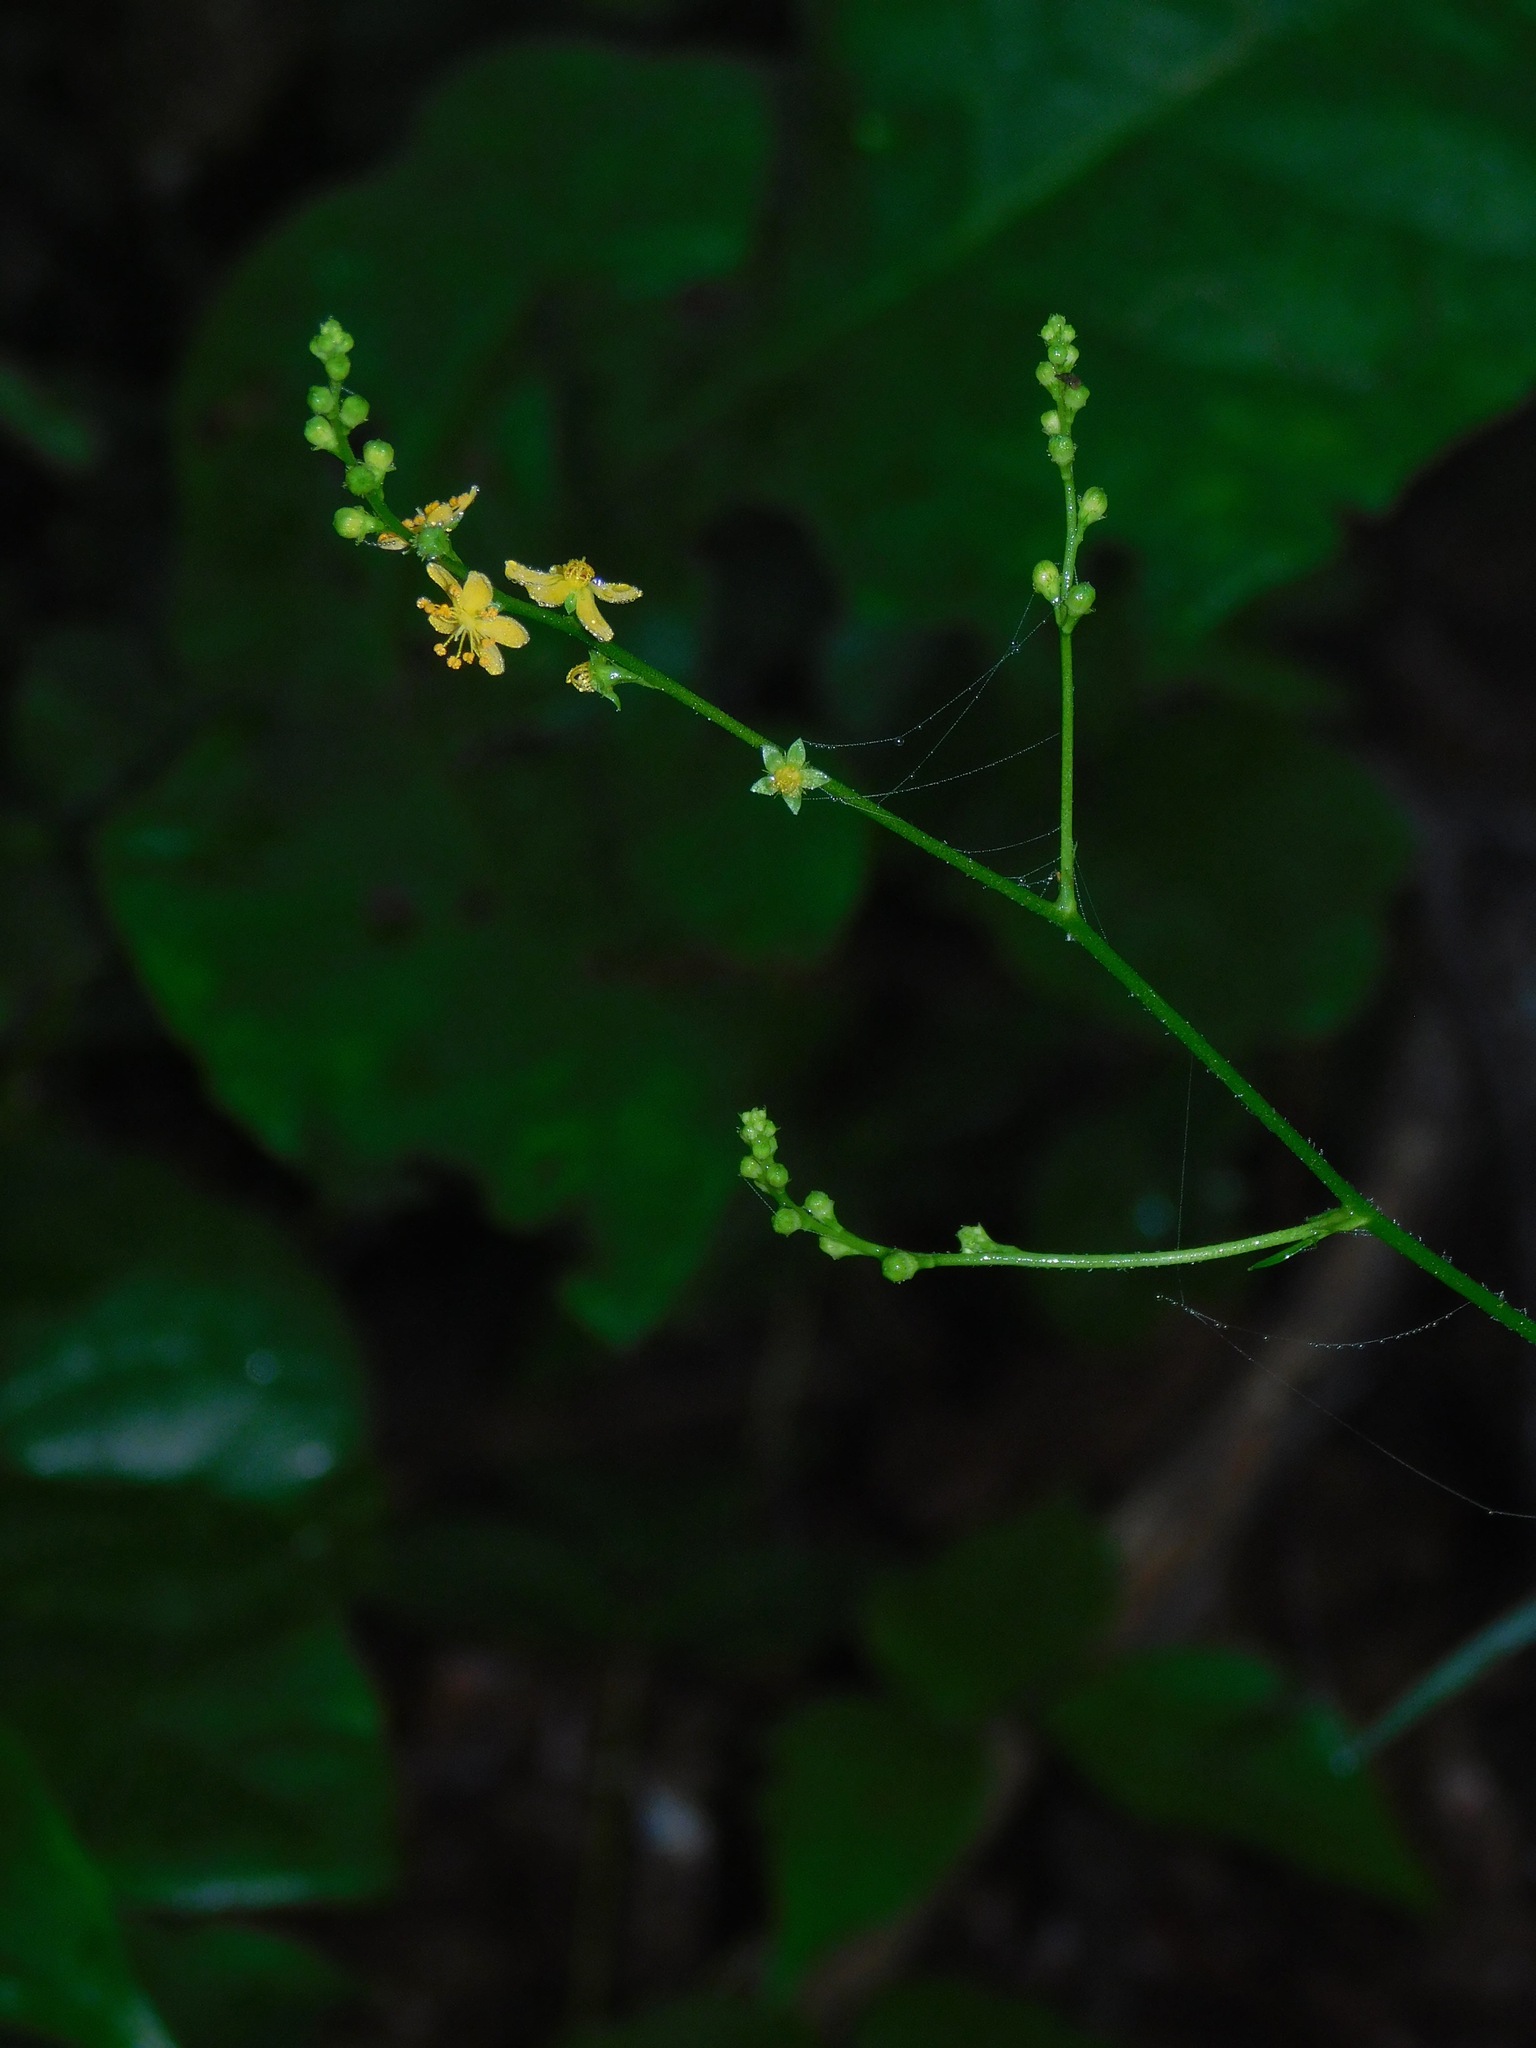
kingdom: Plantae
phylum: Tracheophyta
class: Magnoliopsida
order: Rosales
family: Rosaceae
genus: Agrimonia
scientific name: Agrimonia gryposepala
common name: Common agrimony
